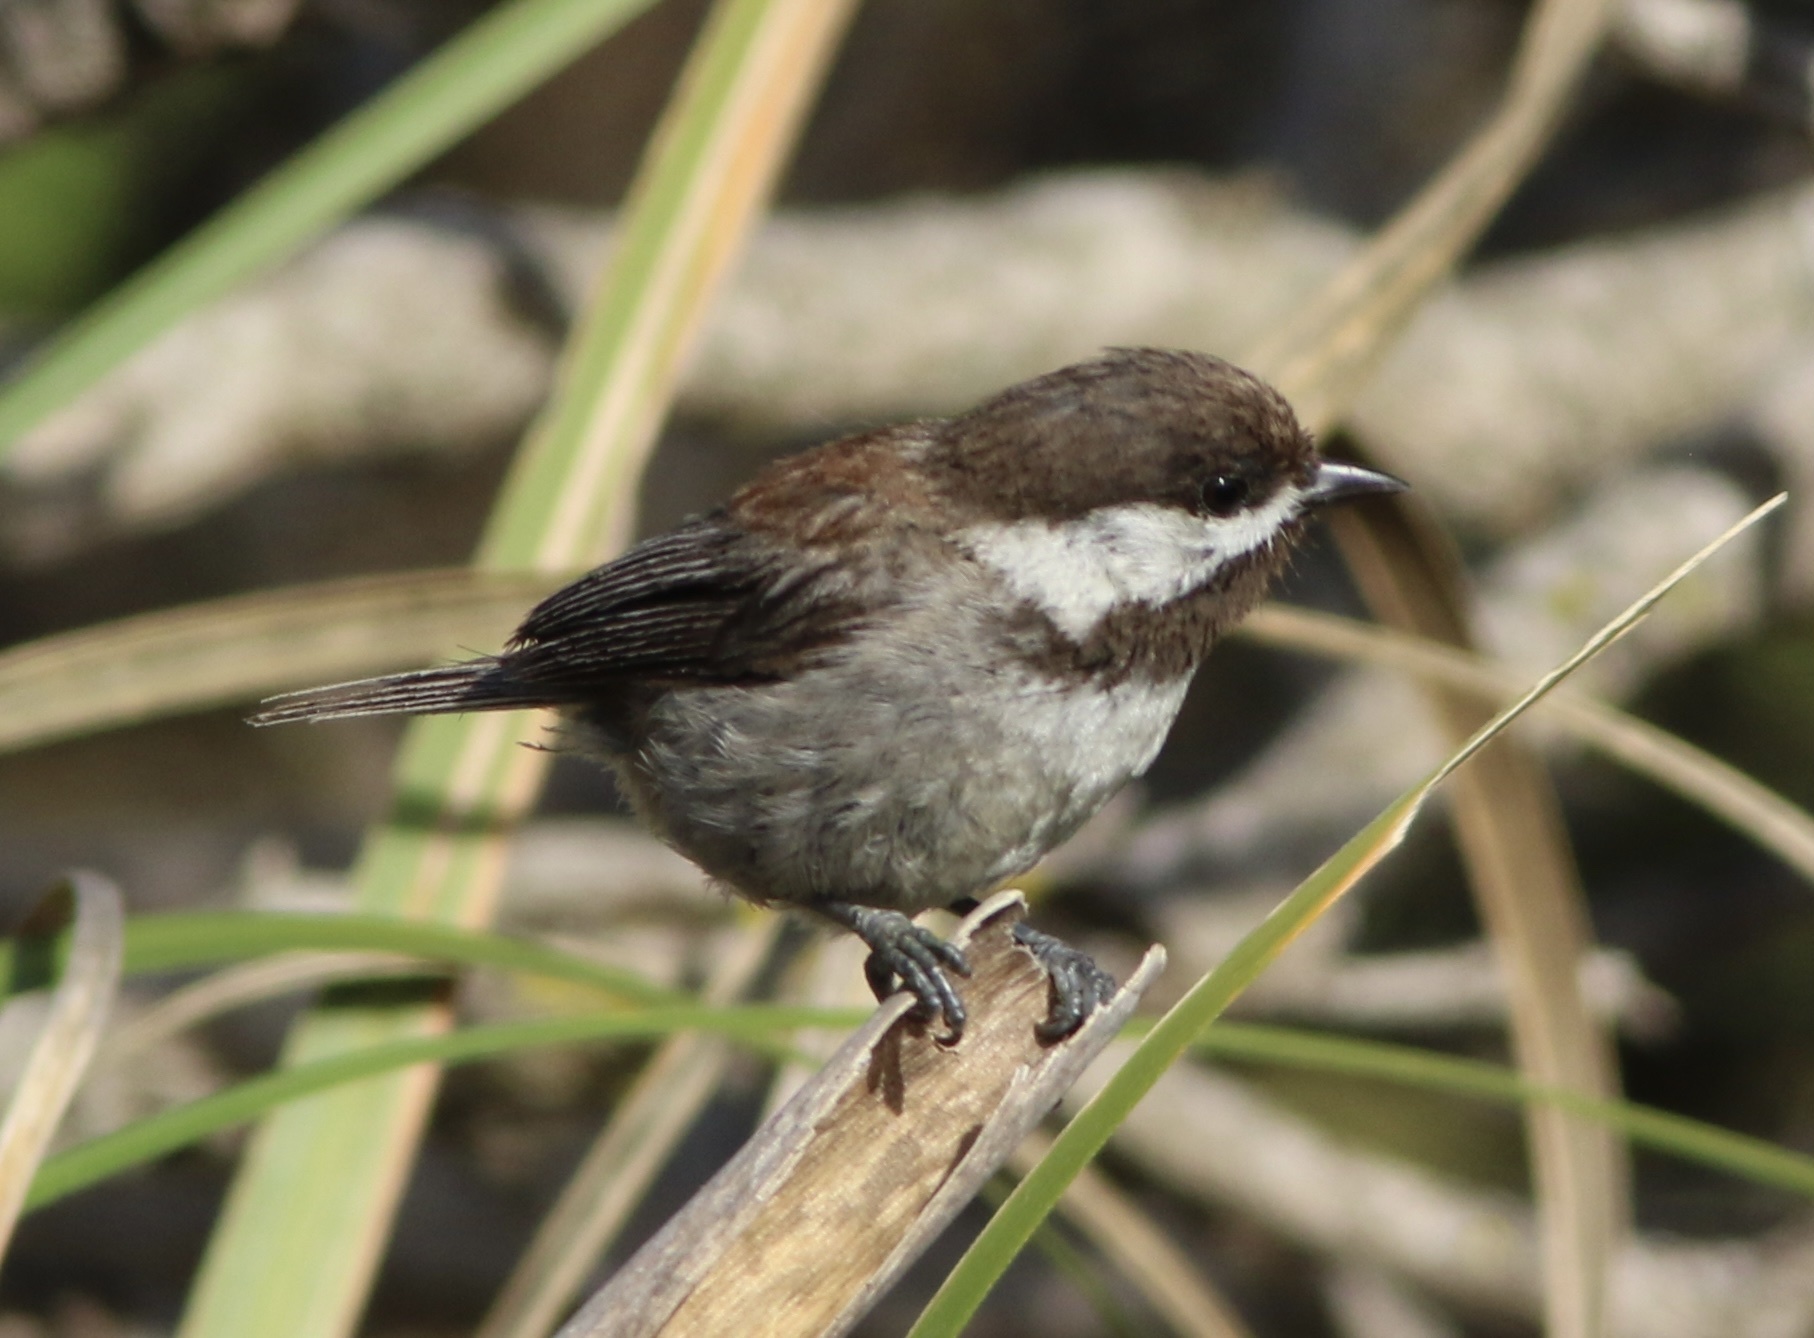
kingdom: Animalia
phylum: Chordata
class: Aves
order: Passeriformes
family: Paridae
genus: Poecile
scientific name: Poecile rufescens
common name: Chestnut-backed chickadee
